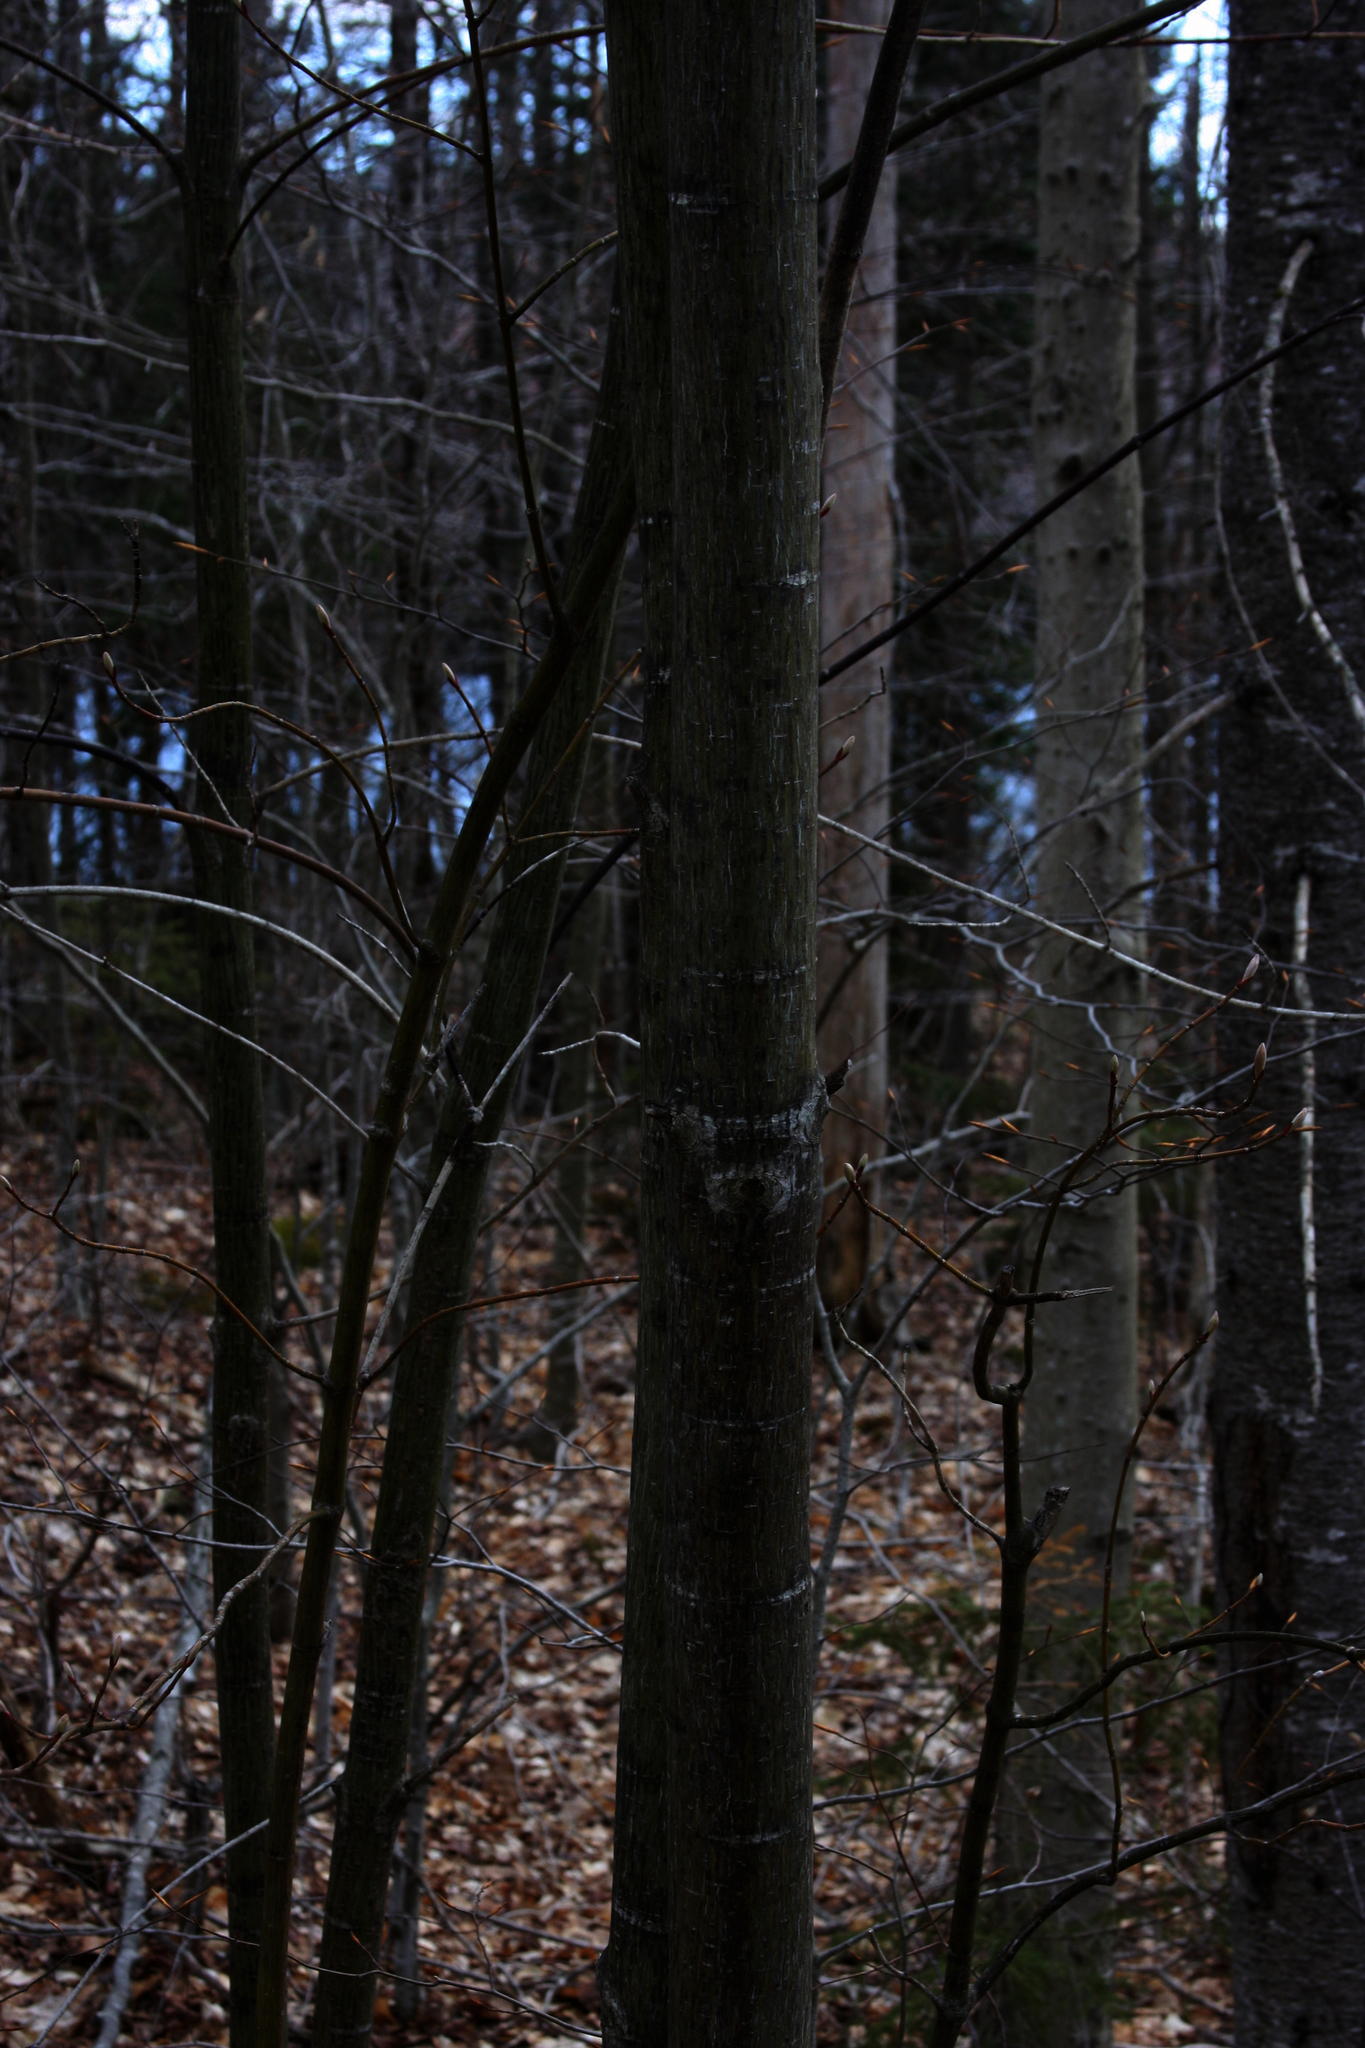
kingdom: Plantae
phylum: Tracheophyta
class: Magnoliopsida
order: Sapindales
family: Sapindaceae
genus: Acer
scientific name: Acer pensylvanicum
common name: Moosewood
